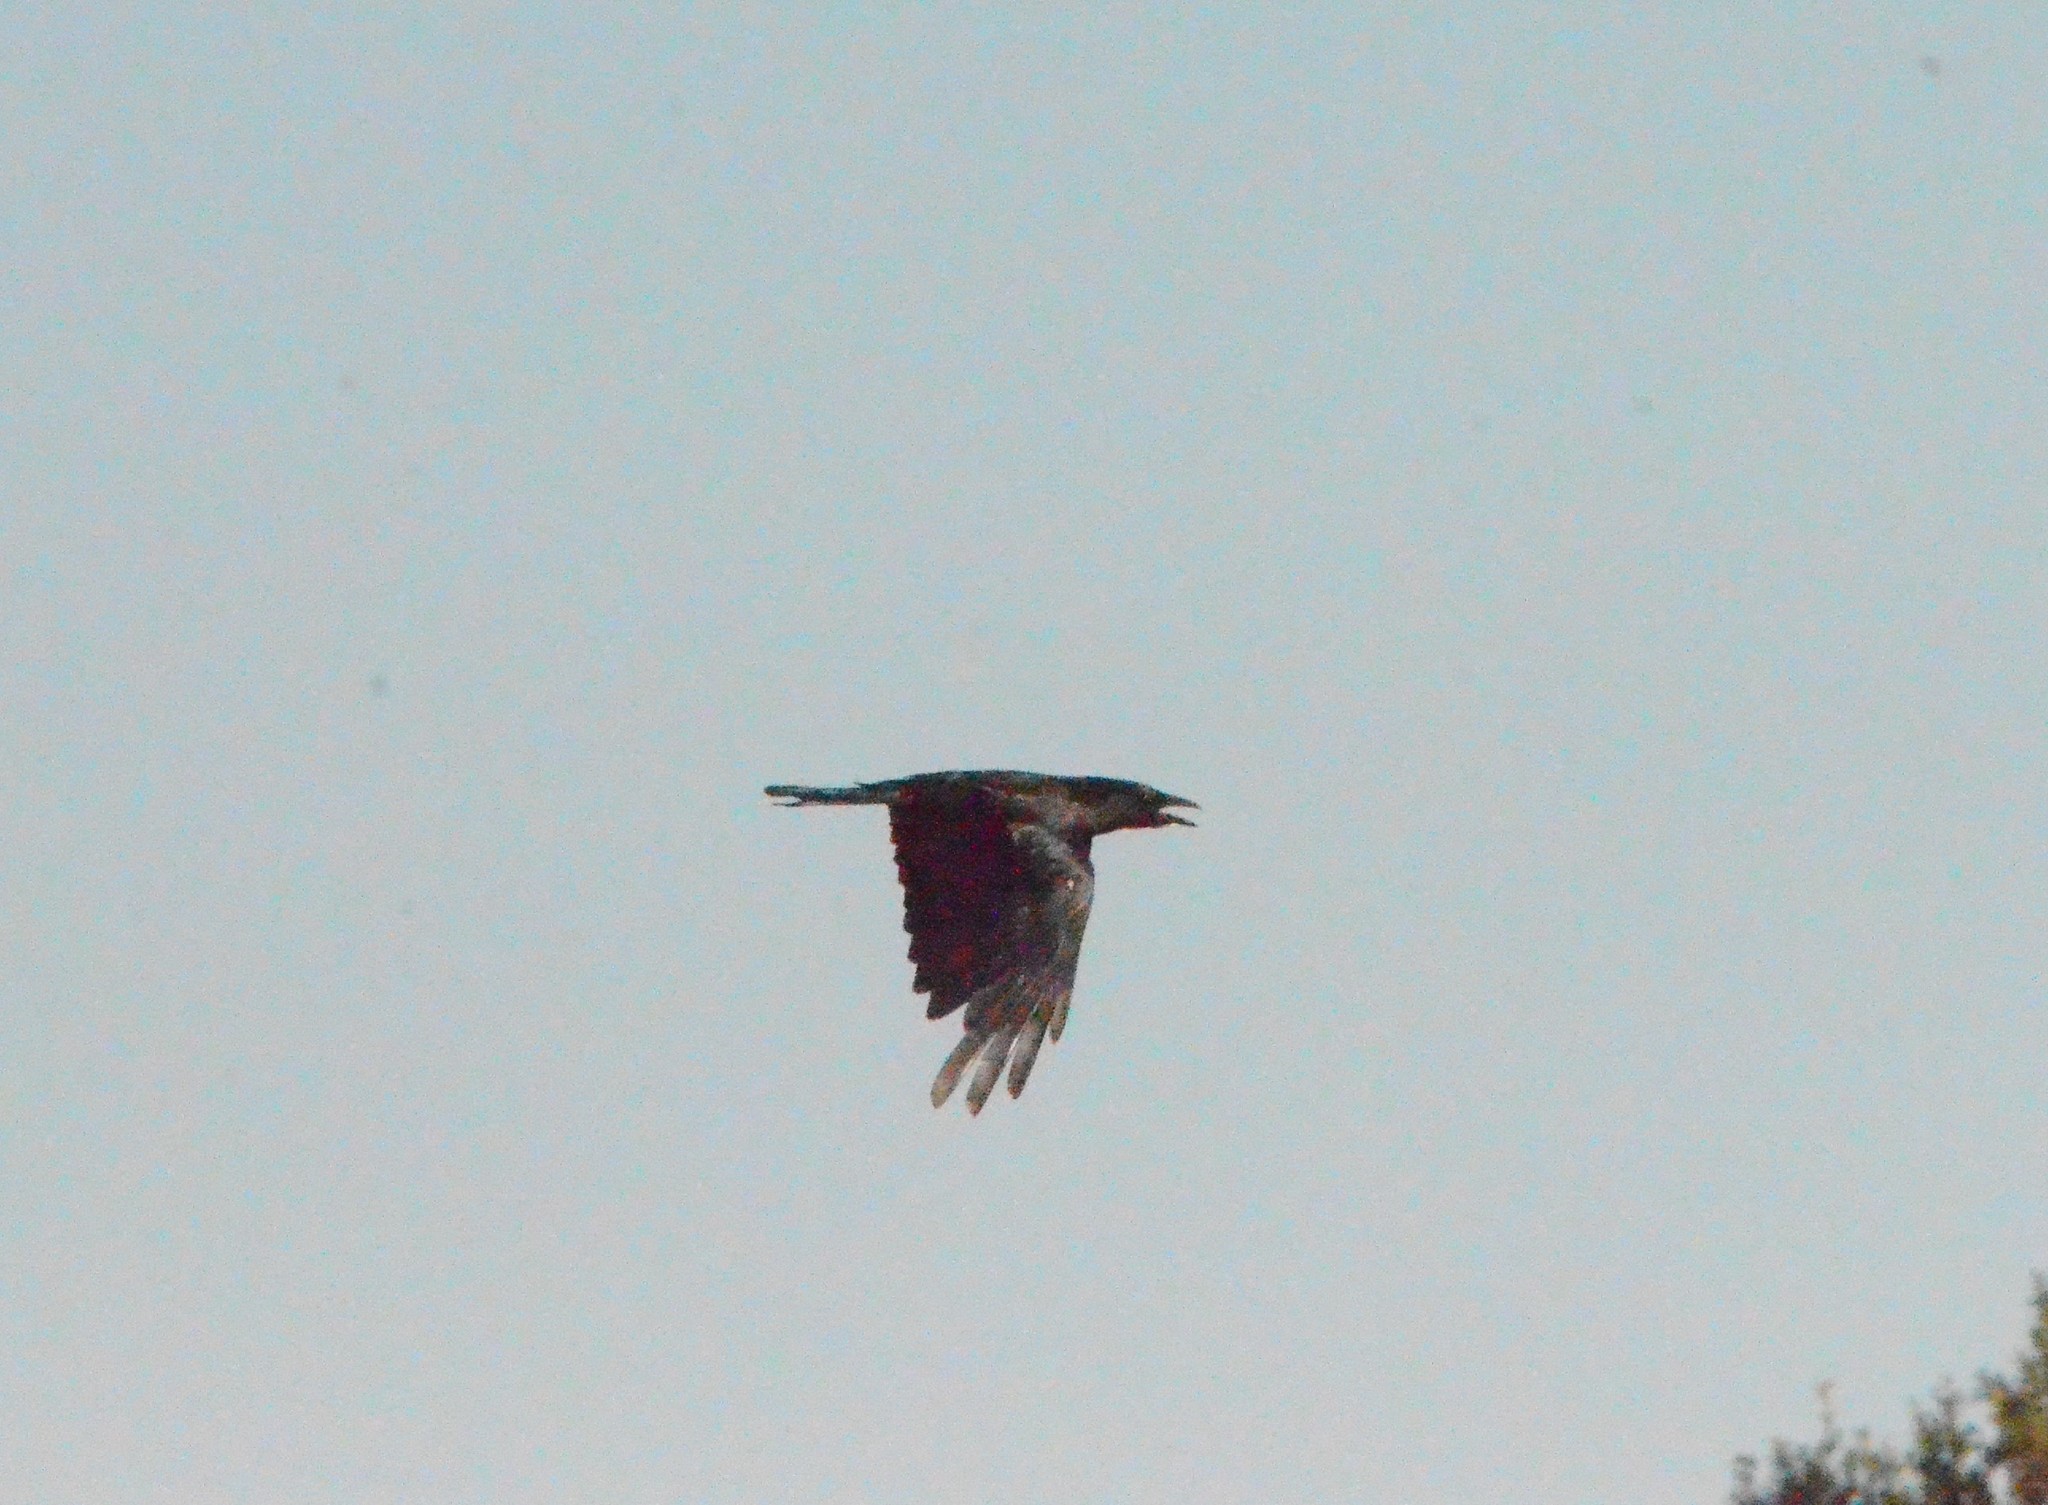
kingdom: Animalia
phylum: Chordata
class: Aves
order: Passeriformes
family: Corvidae
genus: Corvus
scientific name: Corvus corone
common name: Carrion crow
